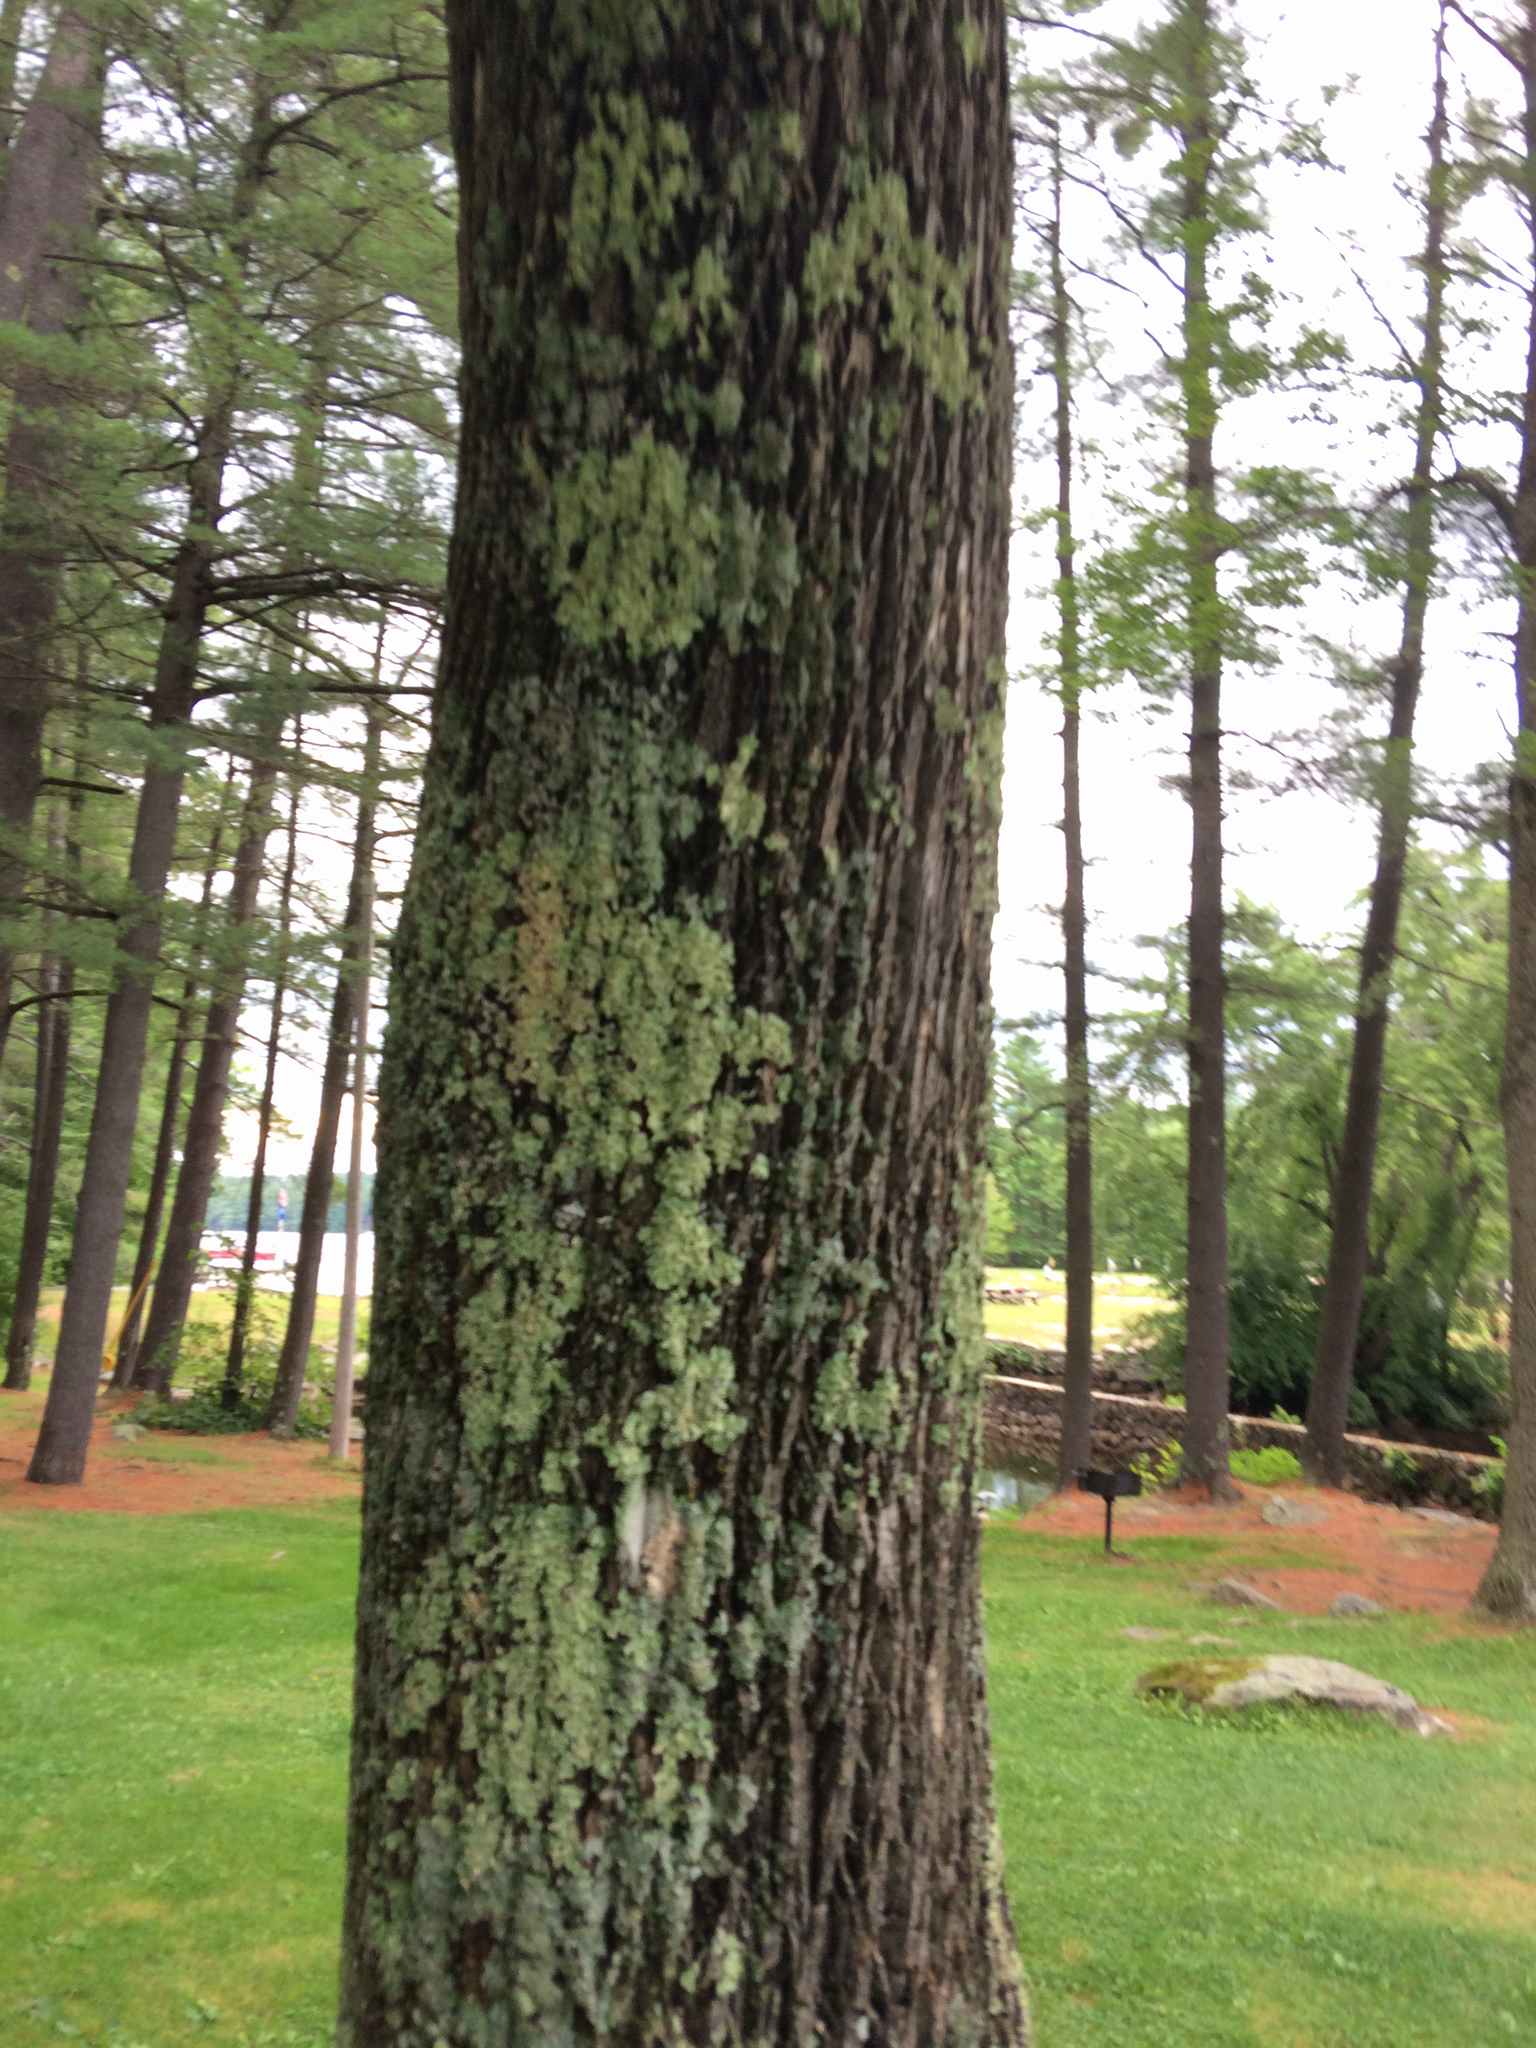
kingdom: Plantae
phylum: Tracheophyta
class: Magnoliopsida
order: Lamiales
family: Oleaceae
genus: Fraxinus
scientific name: Fraxinus americana
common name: White ash
